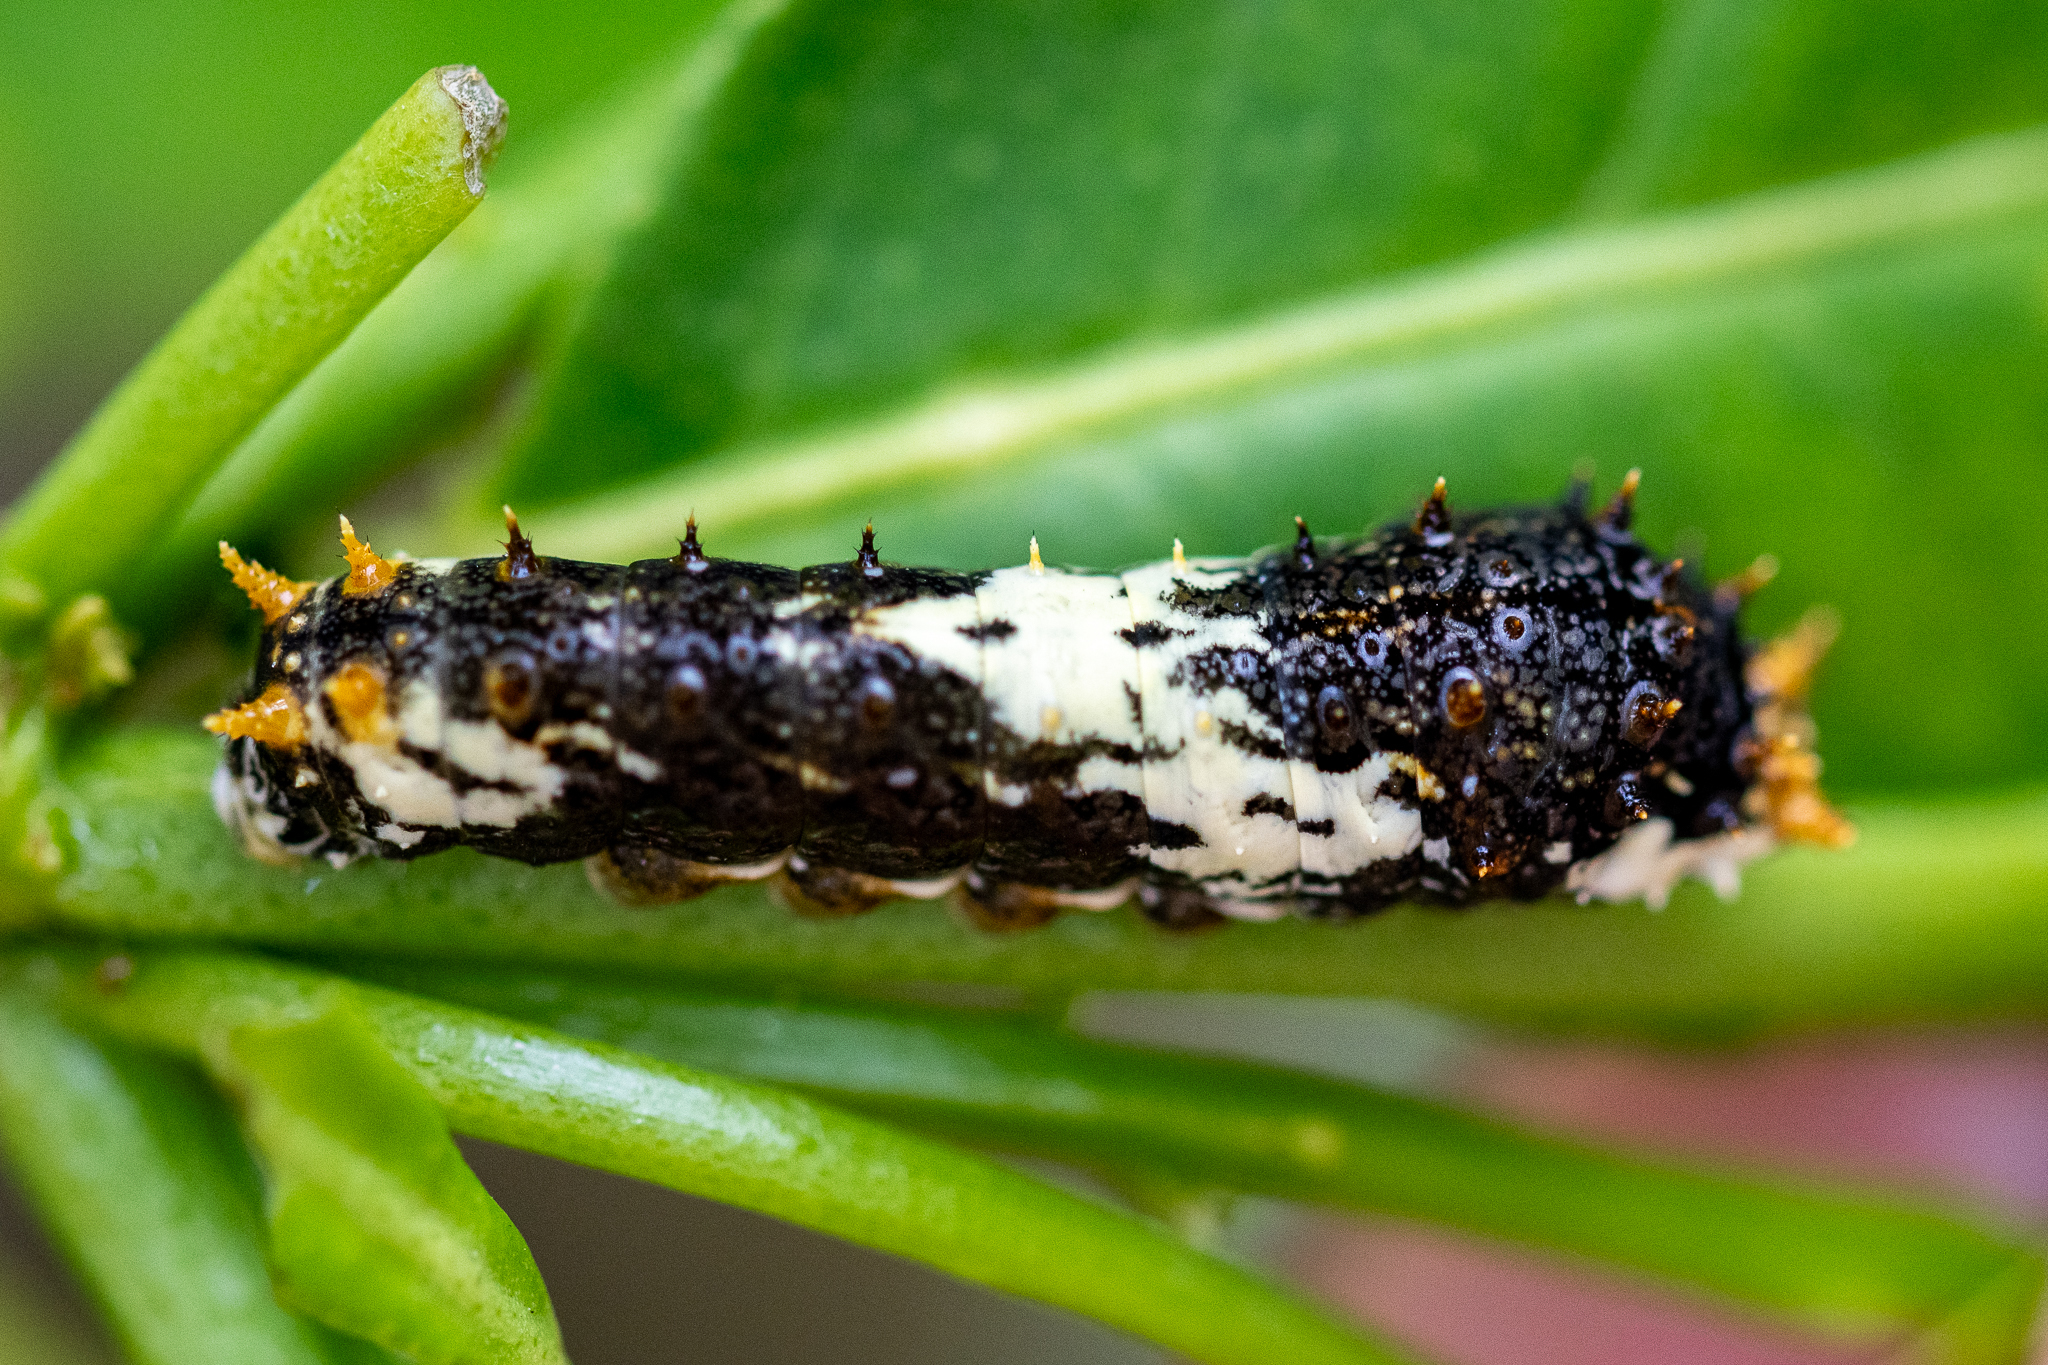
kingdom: Animalia
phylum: Arthropoda
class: Insecta
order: Lepidoptera
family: Papilionidae
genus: Papilio
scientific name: Papilio demodocus
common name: Christmas butterfly
